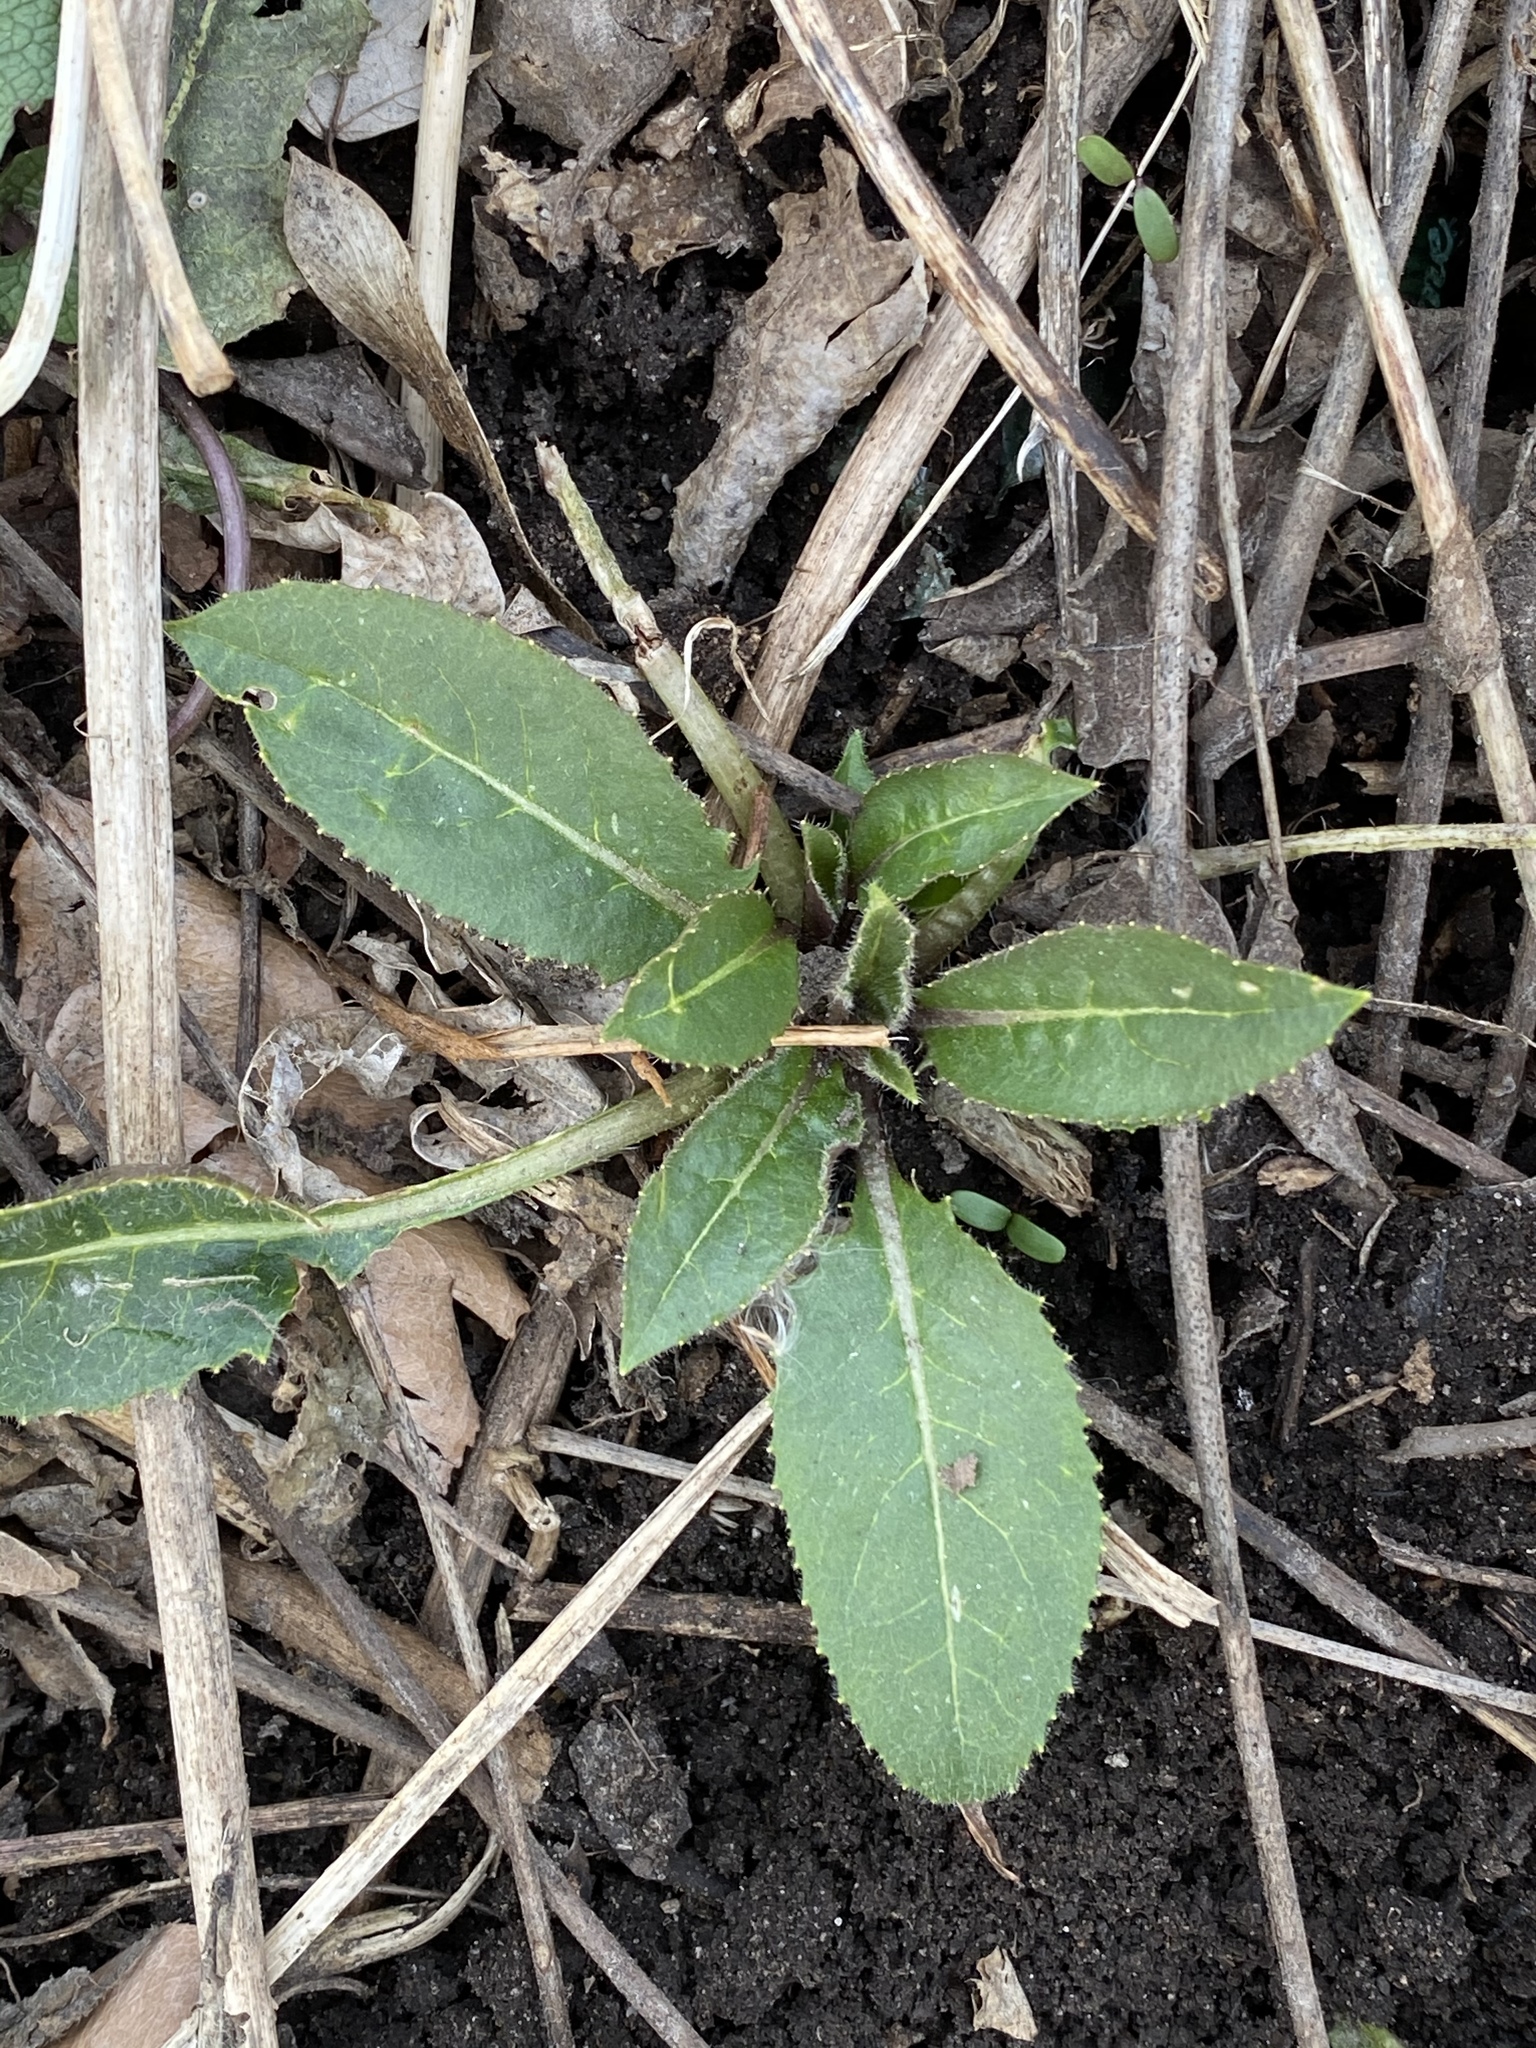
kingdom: Plantae
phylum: Tracheophyta
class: Magnoliopsida
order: Brassicales
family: Brassicaceae
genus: Hesperis
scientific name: Hesperis matronalis
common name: Dame's-violet
